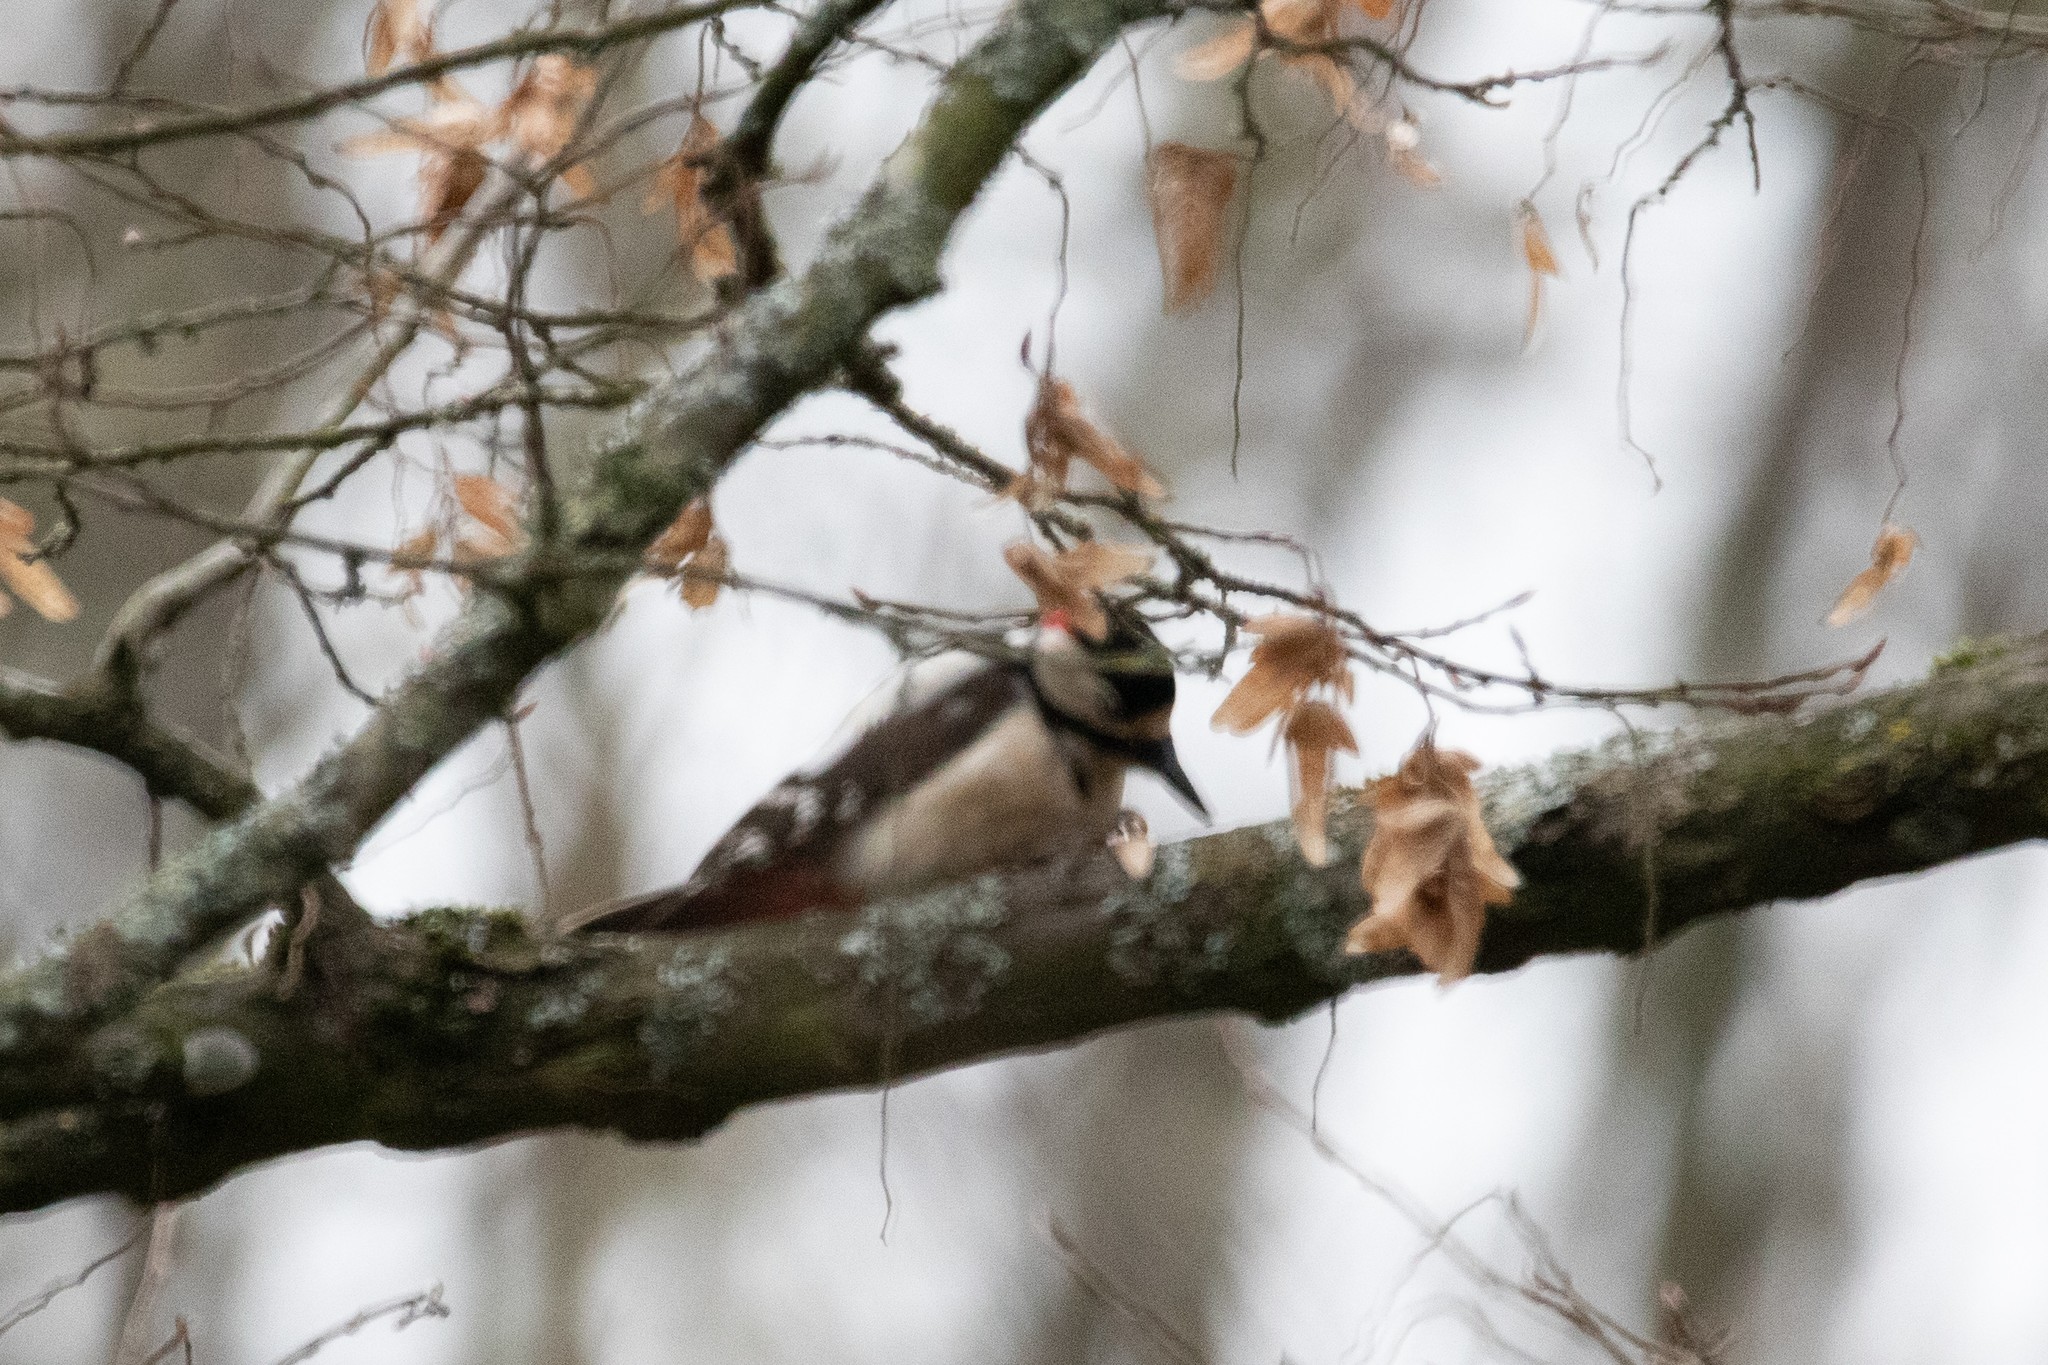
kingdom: Animalia
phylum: Chordata
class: Aves
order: Piciformes
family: Picidae
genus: Dendrocopos
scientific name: Dendrocopos major
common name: Great spotted woodpecker
